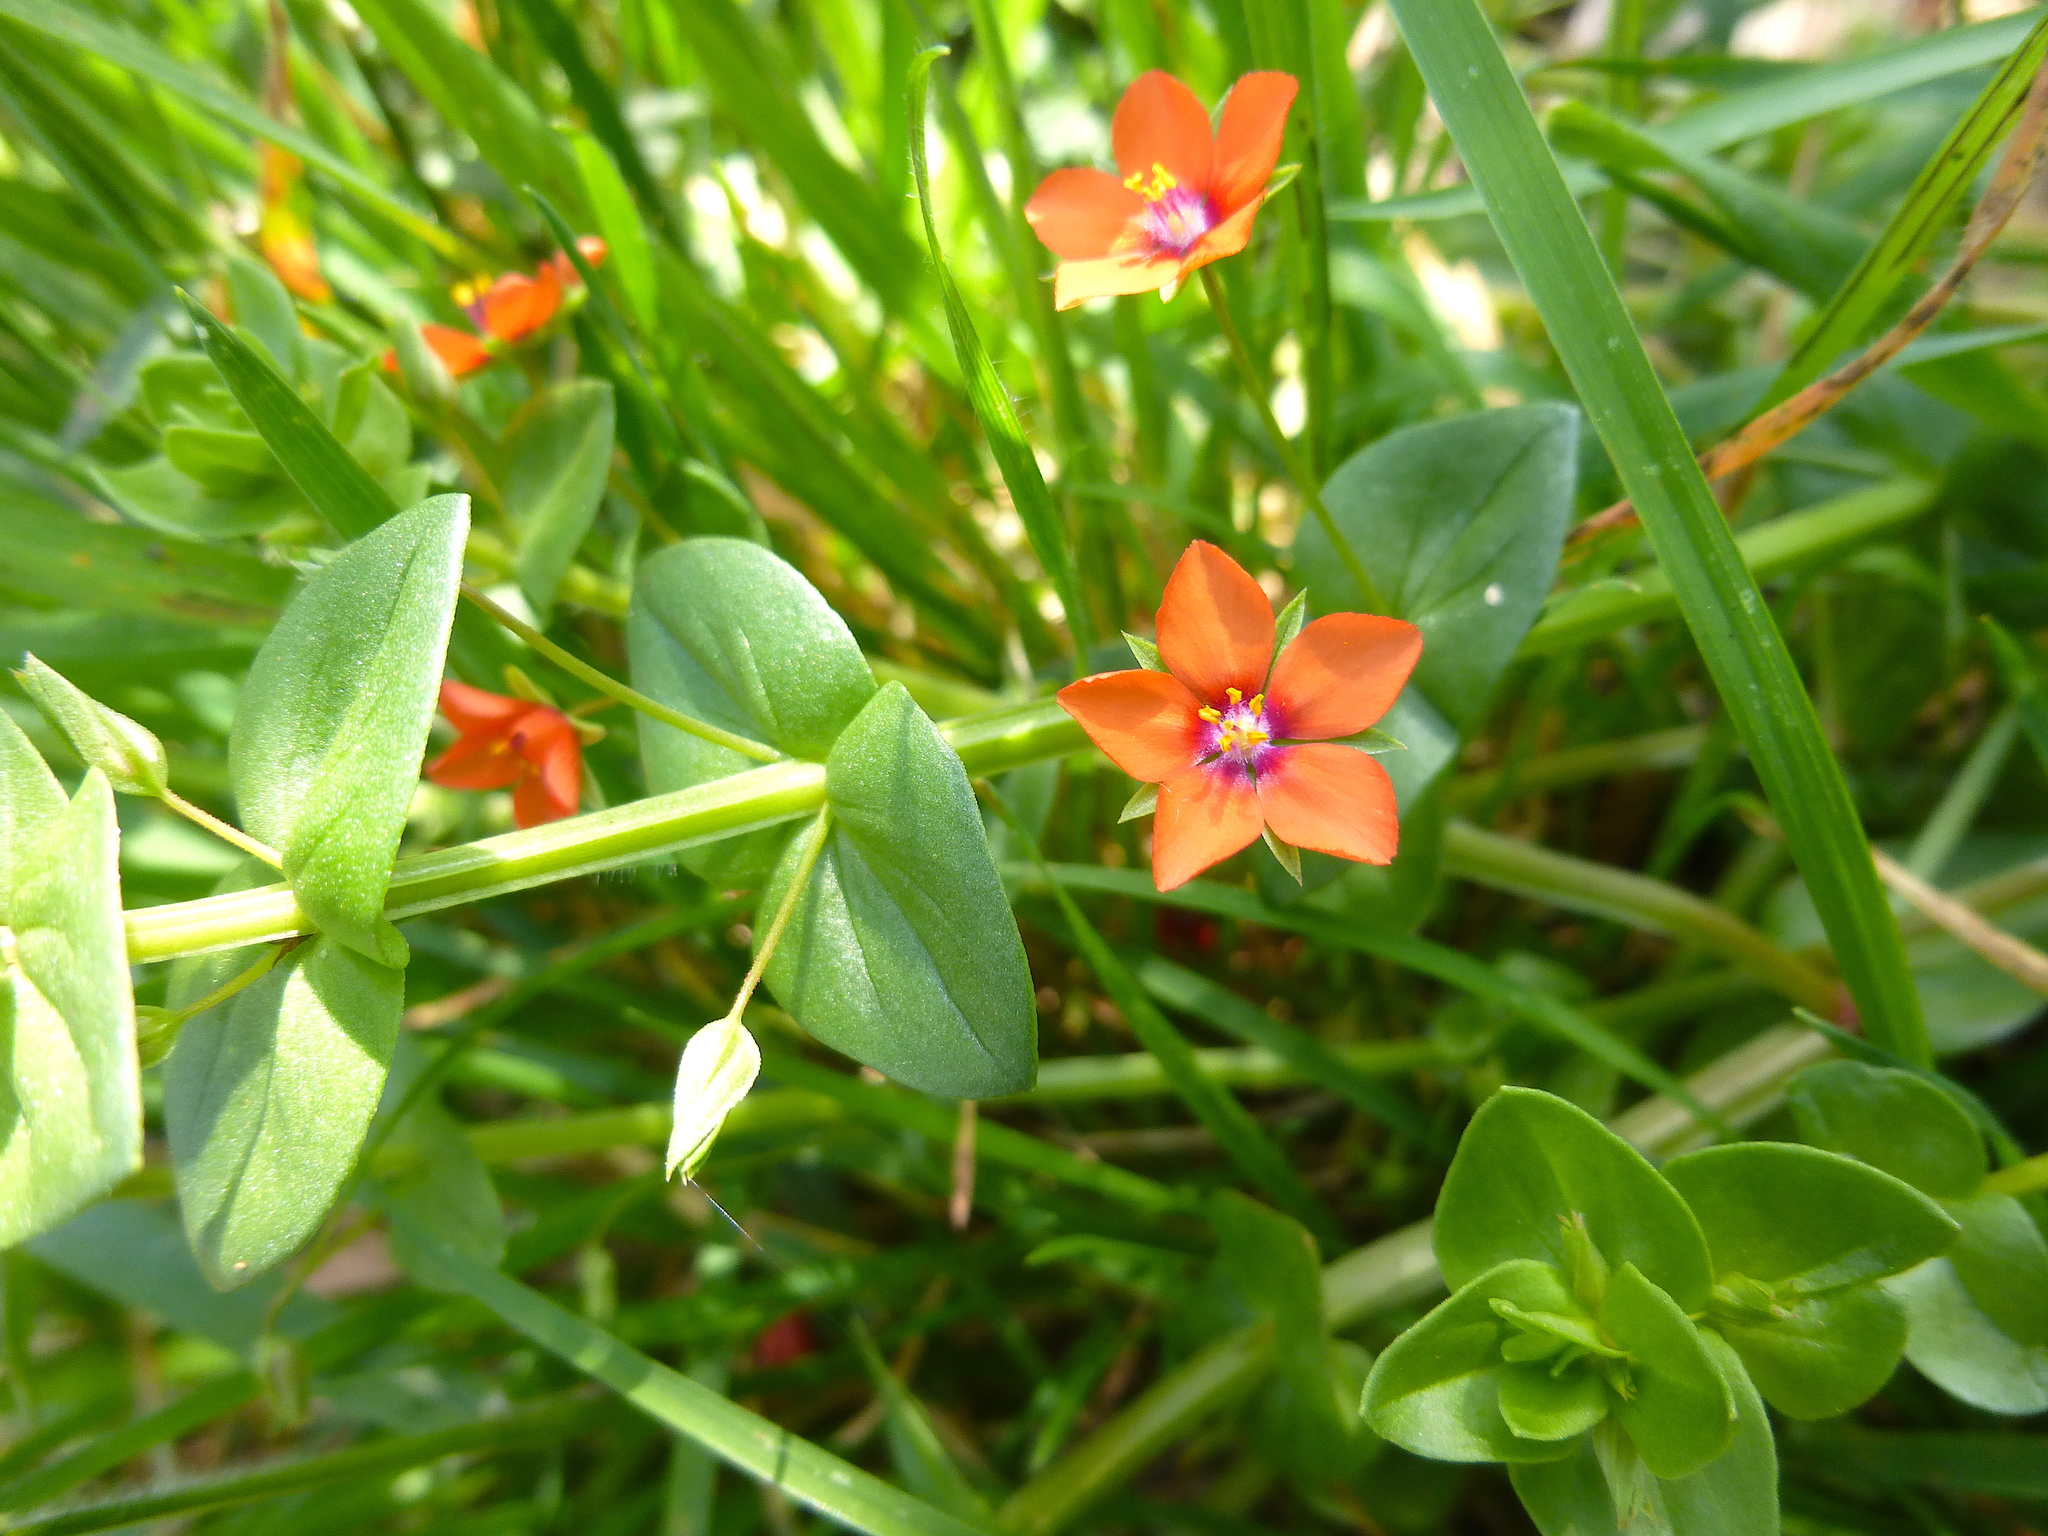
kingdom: Plantae
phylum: Tracheophyta
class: Magnoliopsida
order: Ericales
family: Primulaceae
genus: Lysimachia
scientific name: Lysimachia arvensis
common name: Scarlet pimpernel
